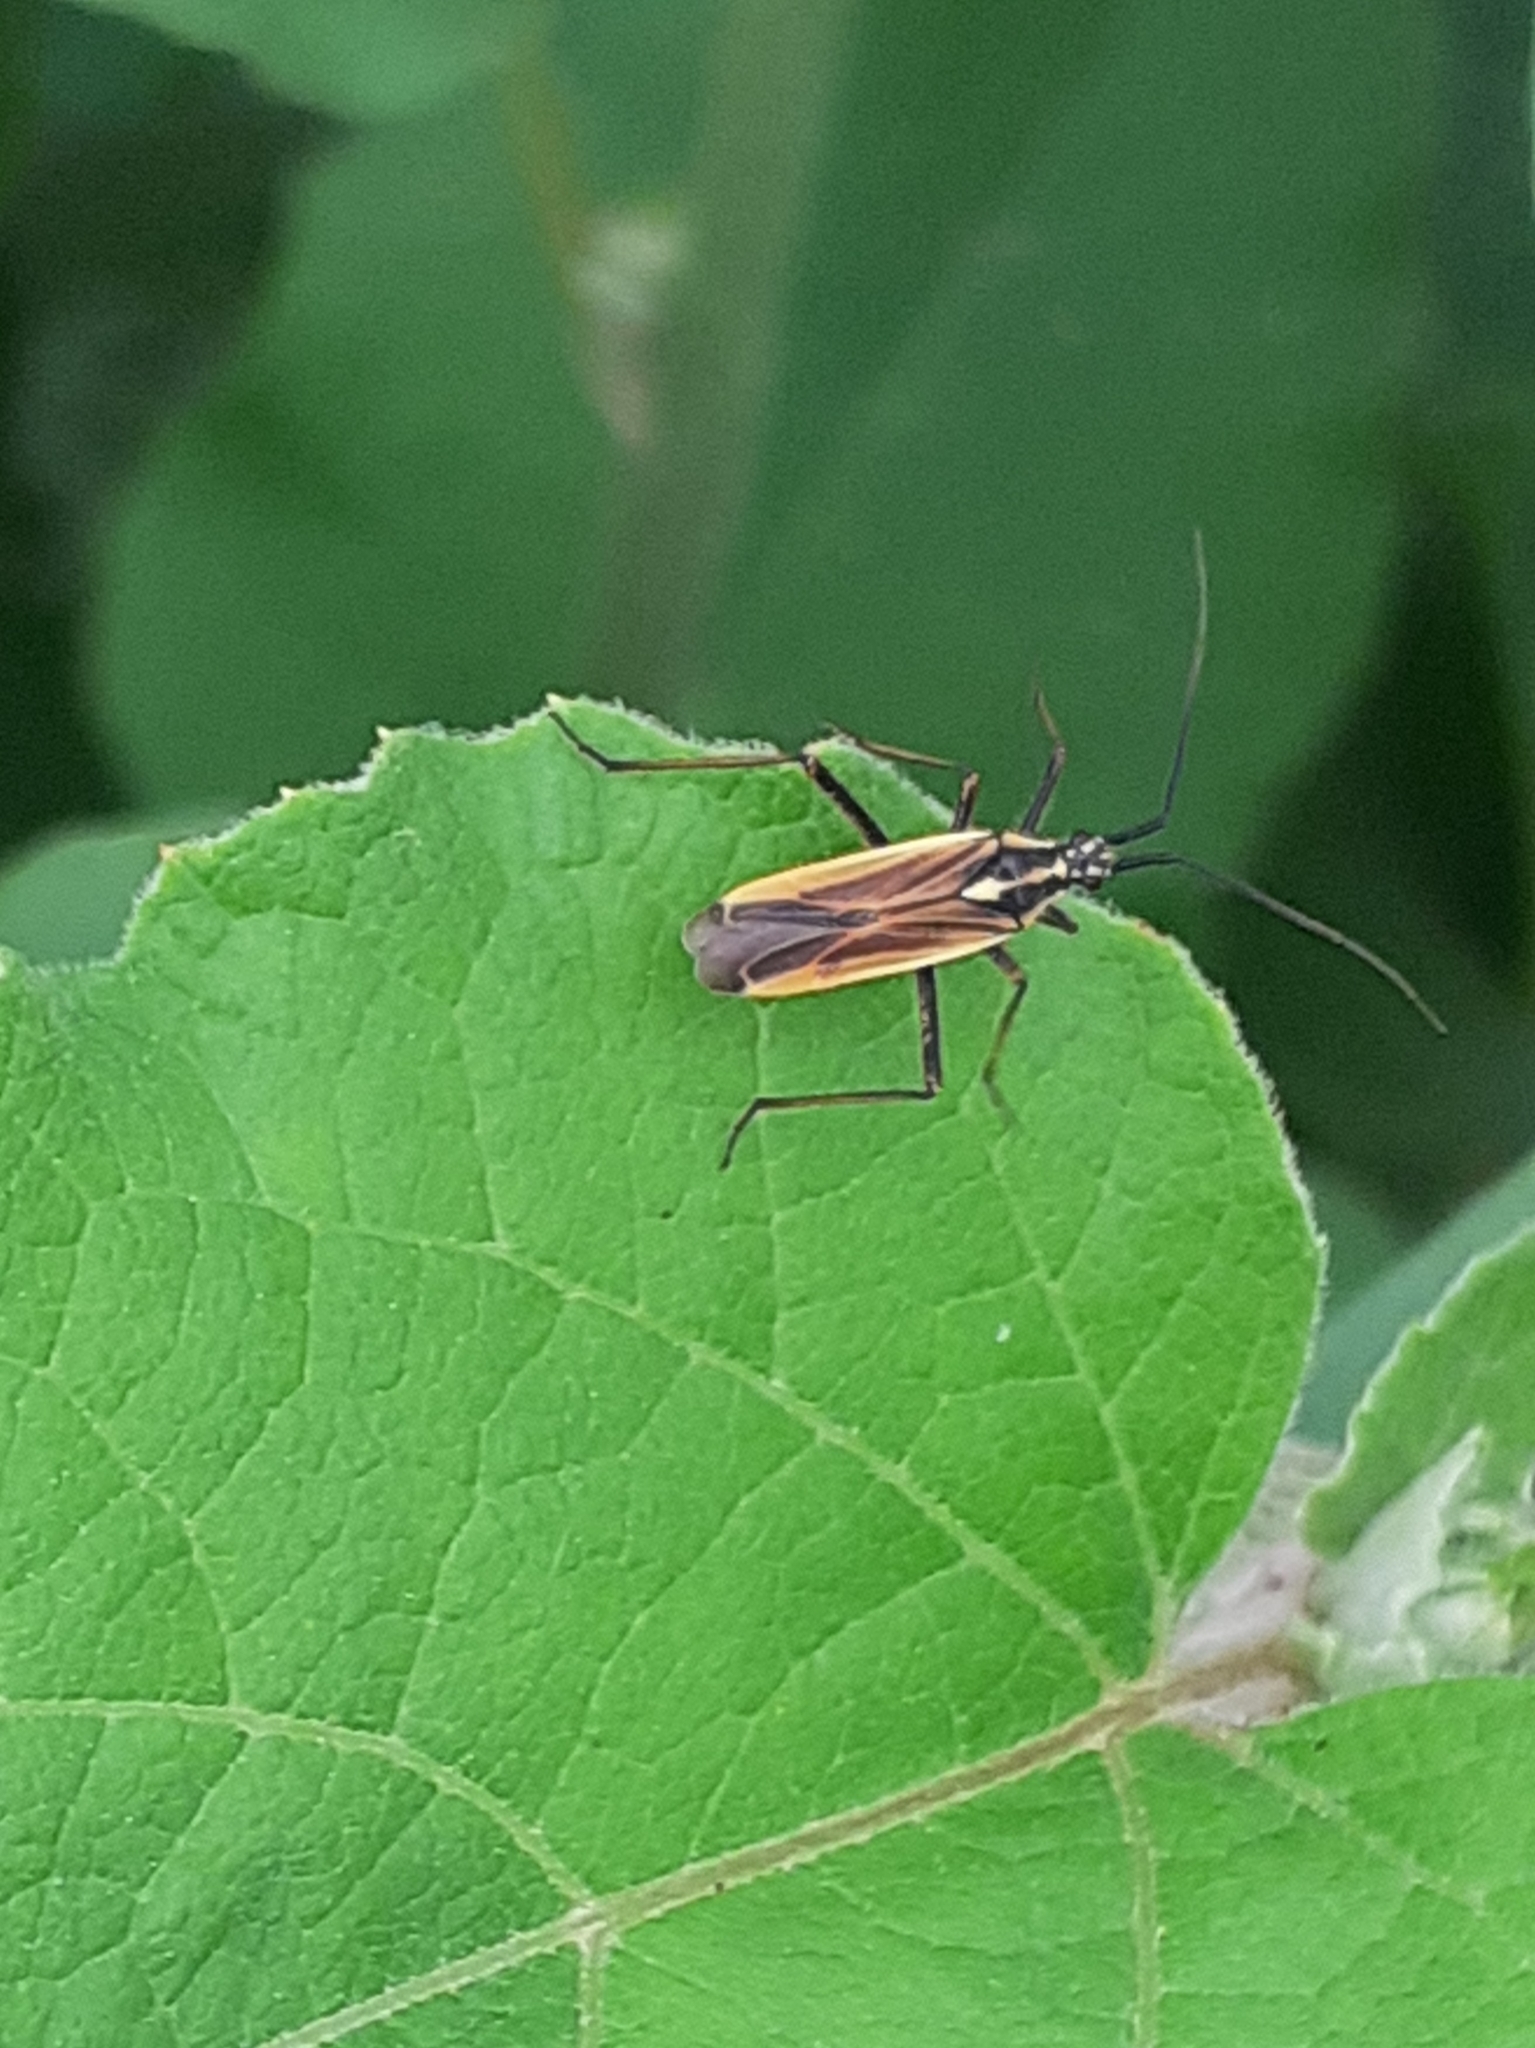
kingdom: Animalia
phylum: Arthropoda
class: Insecta
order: Hemiptera
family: Miridae
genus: Leptopterna
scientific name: Leptopterna dolabrata
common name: Meadow plant bug
